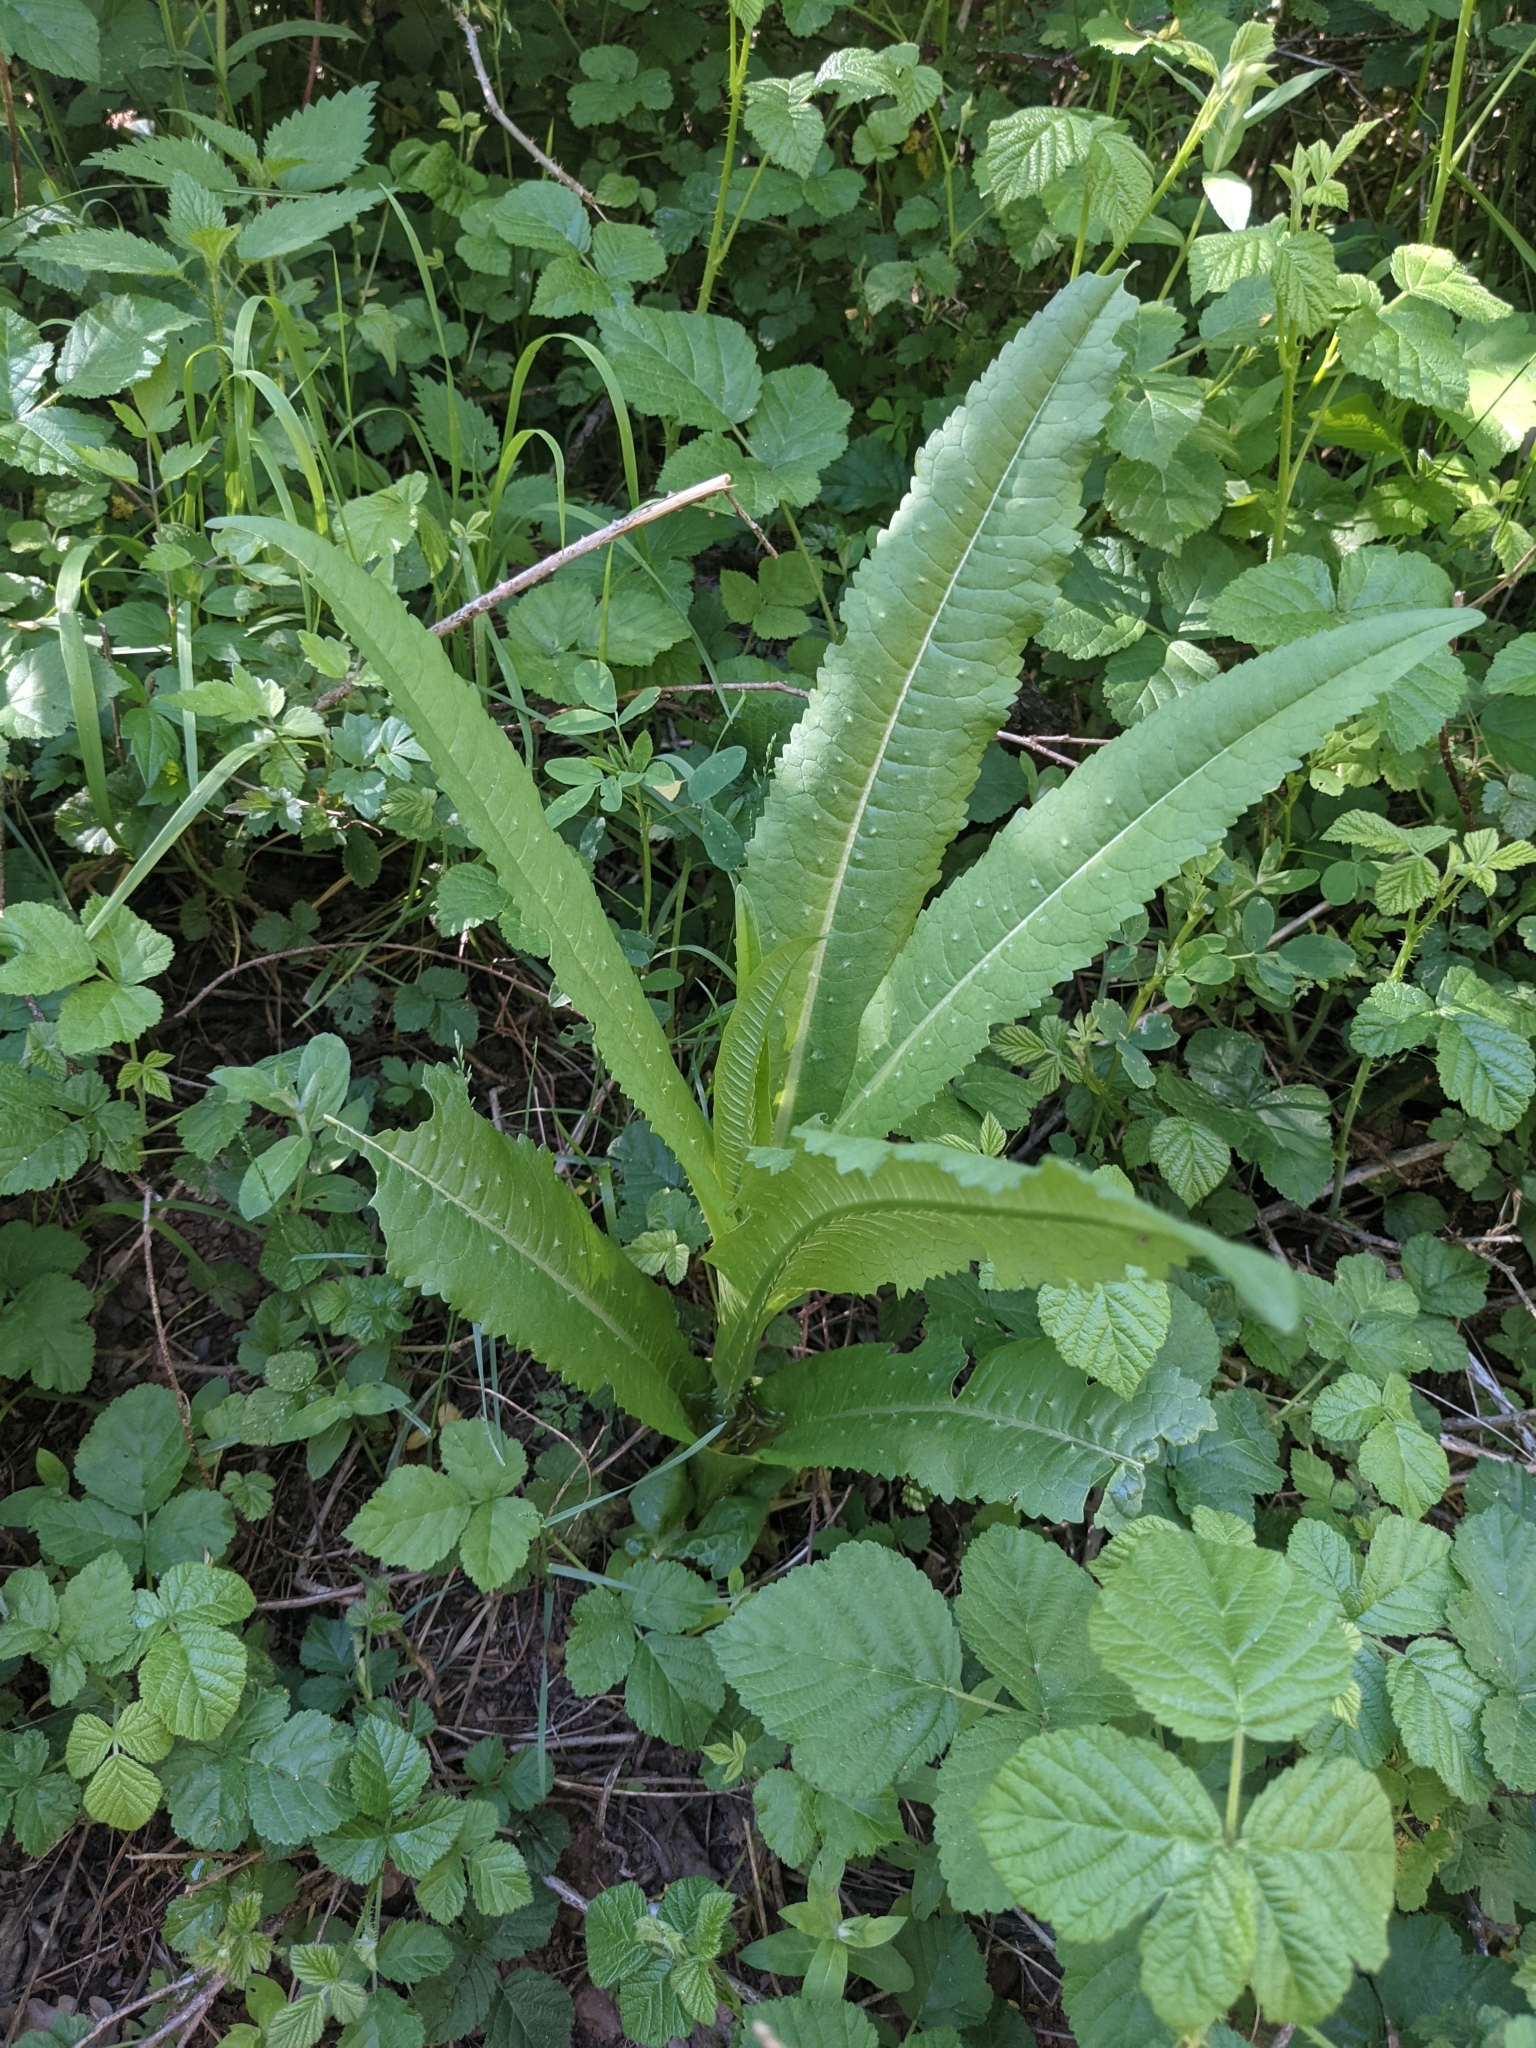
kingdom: Plantae
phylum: Tracheophyta
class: Magnoliopsida
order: Dipsacales
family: Caprifoliaceae
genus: Dipsacus
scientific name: Dipsacus fullonum
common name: Teasel
